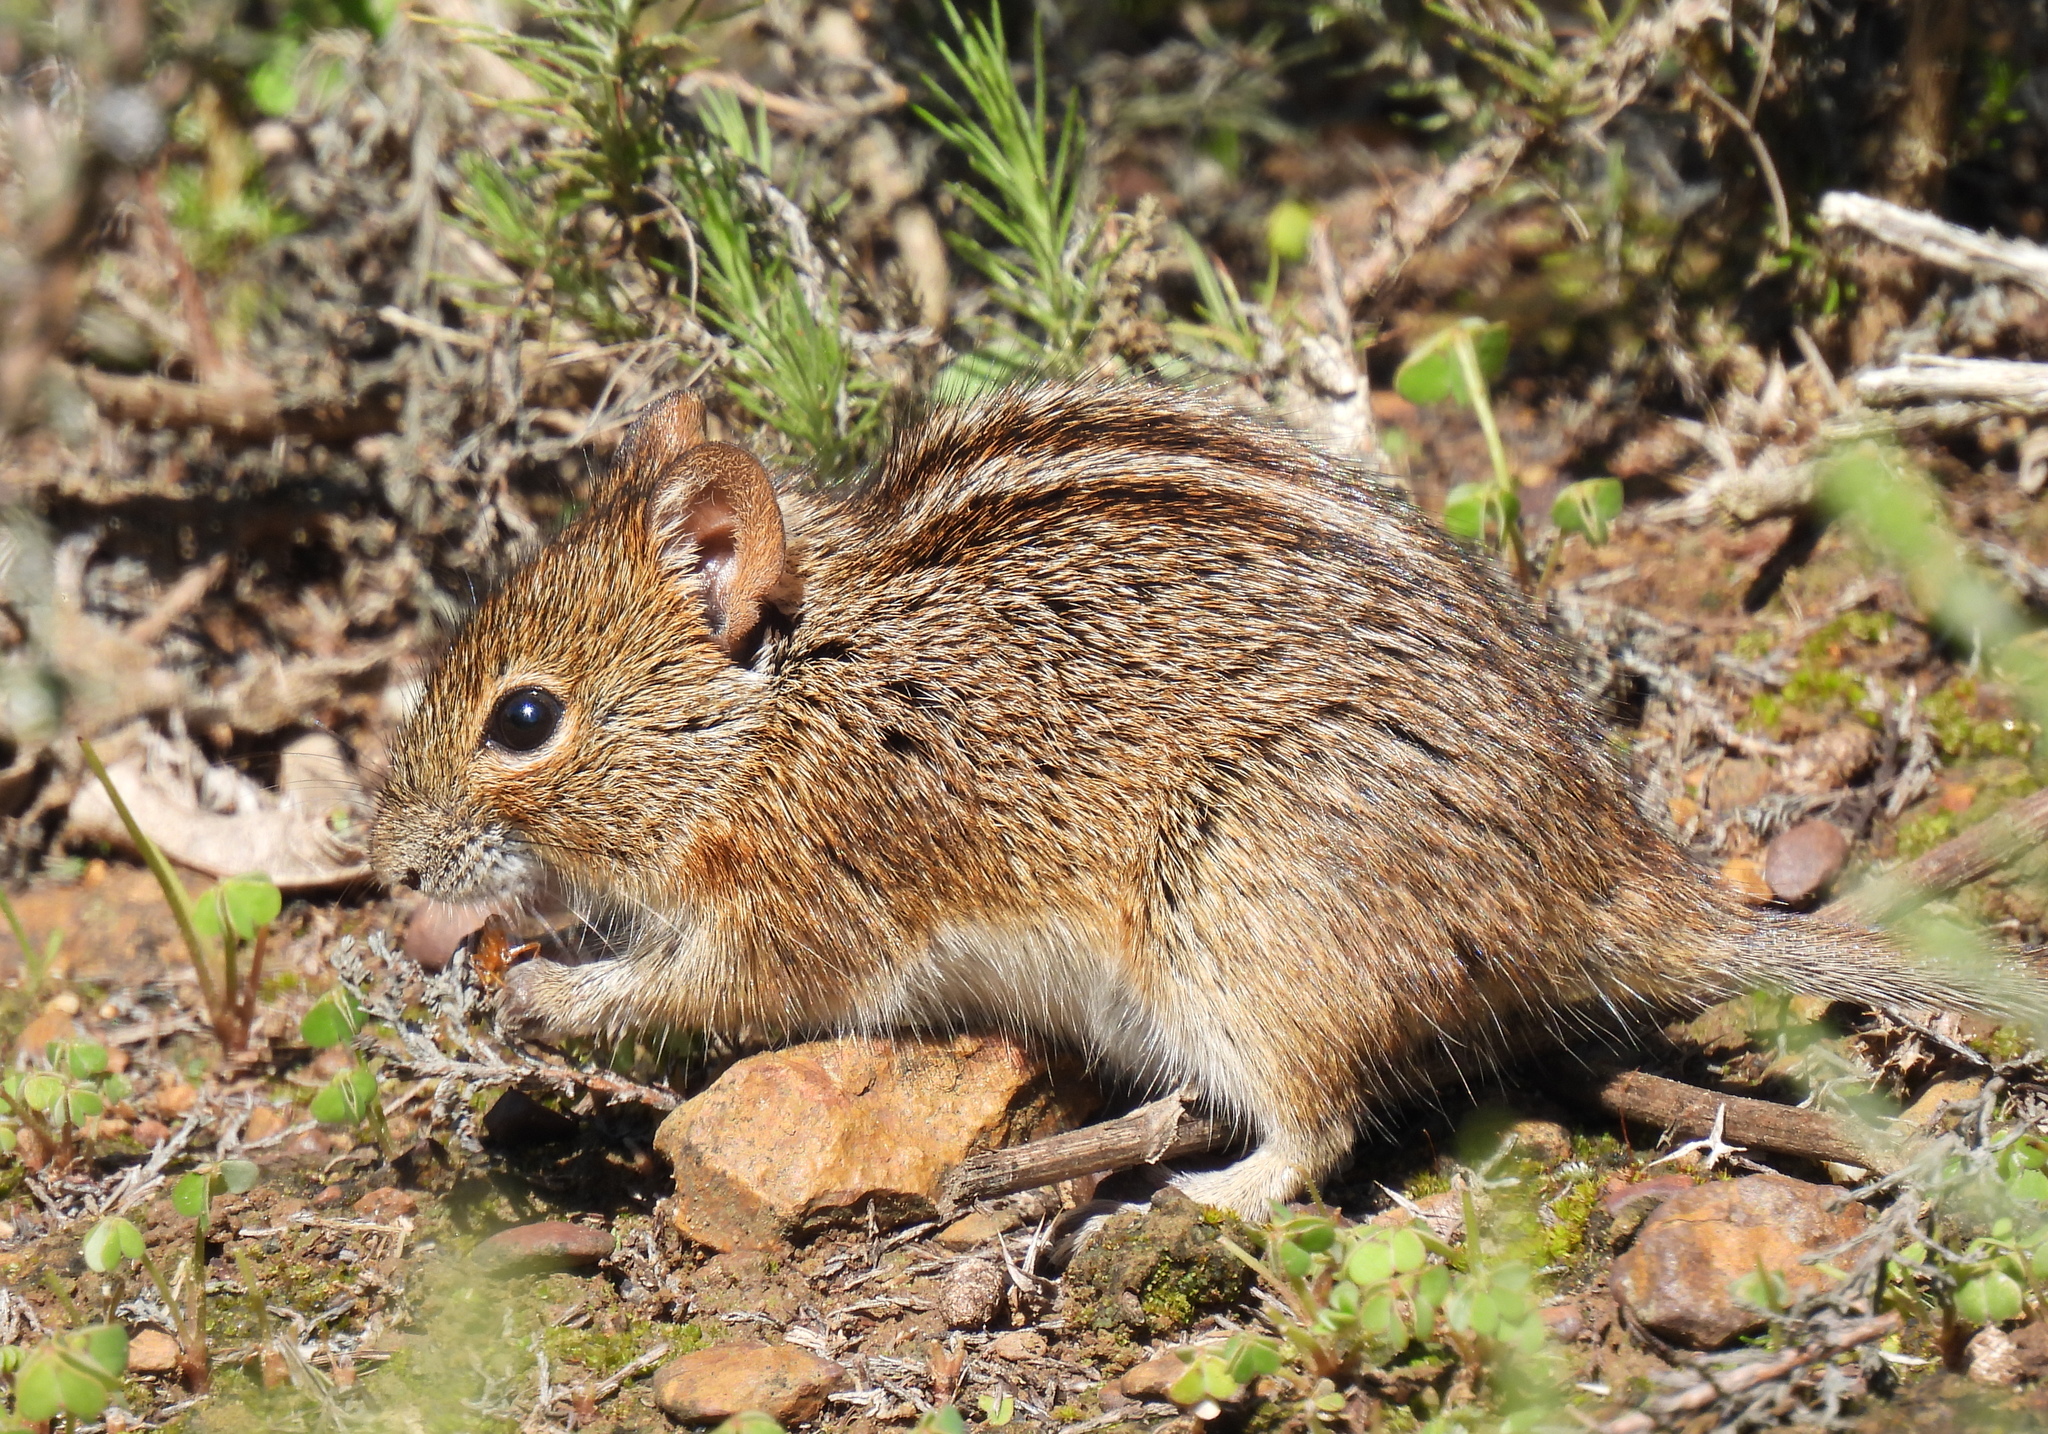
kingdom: Animalia
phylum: Chordata
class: Mammalia
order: Rodentia
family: Muridae
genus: Rhabdomys
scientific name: Rhabdomys pumilio
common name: Xeric four-striped grass rat
